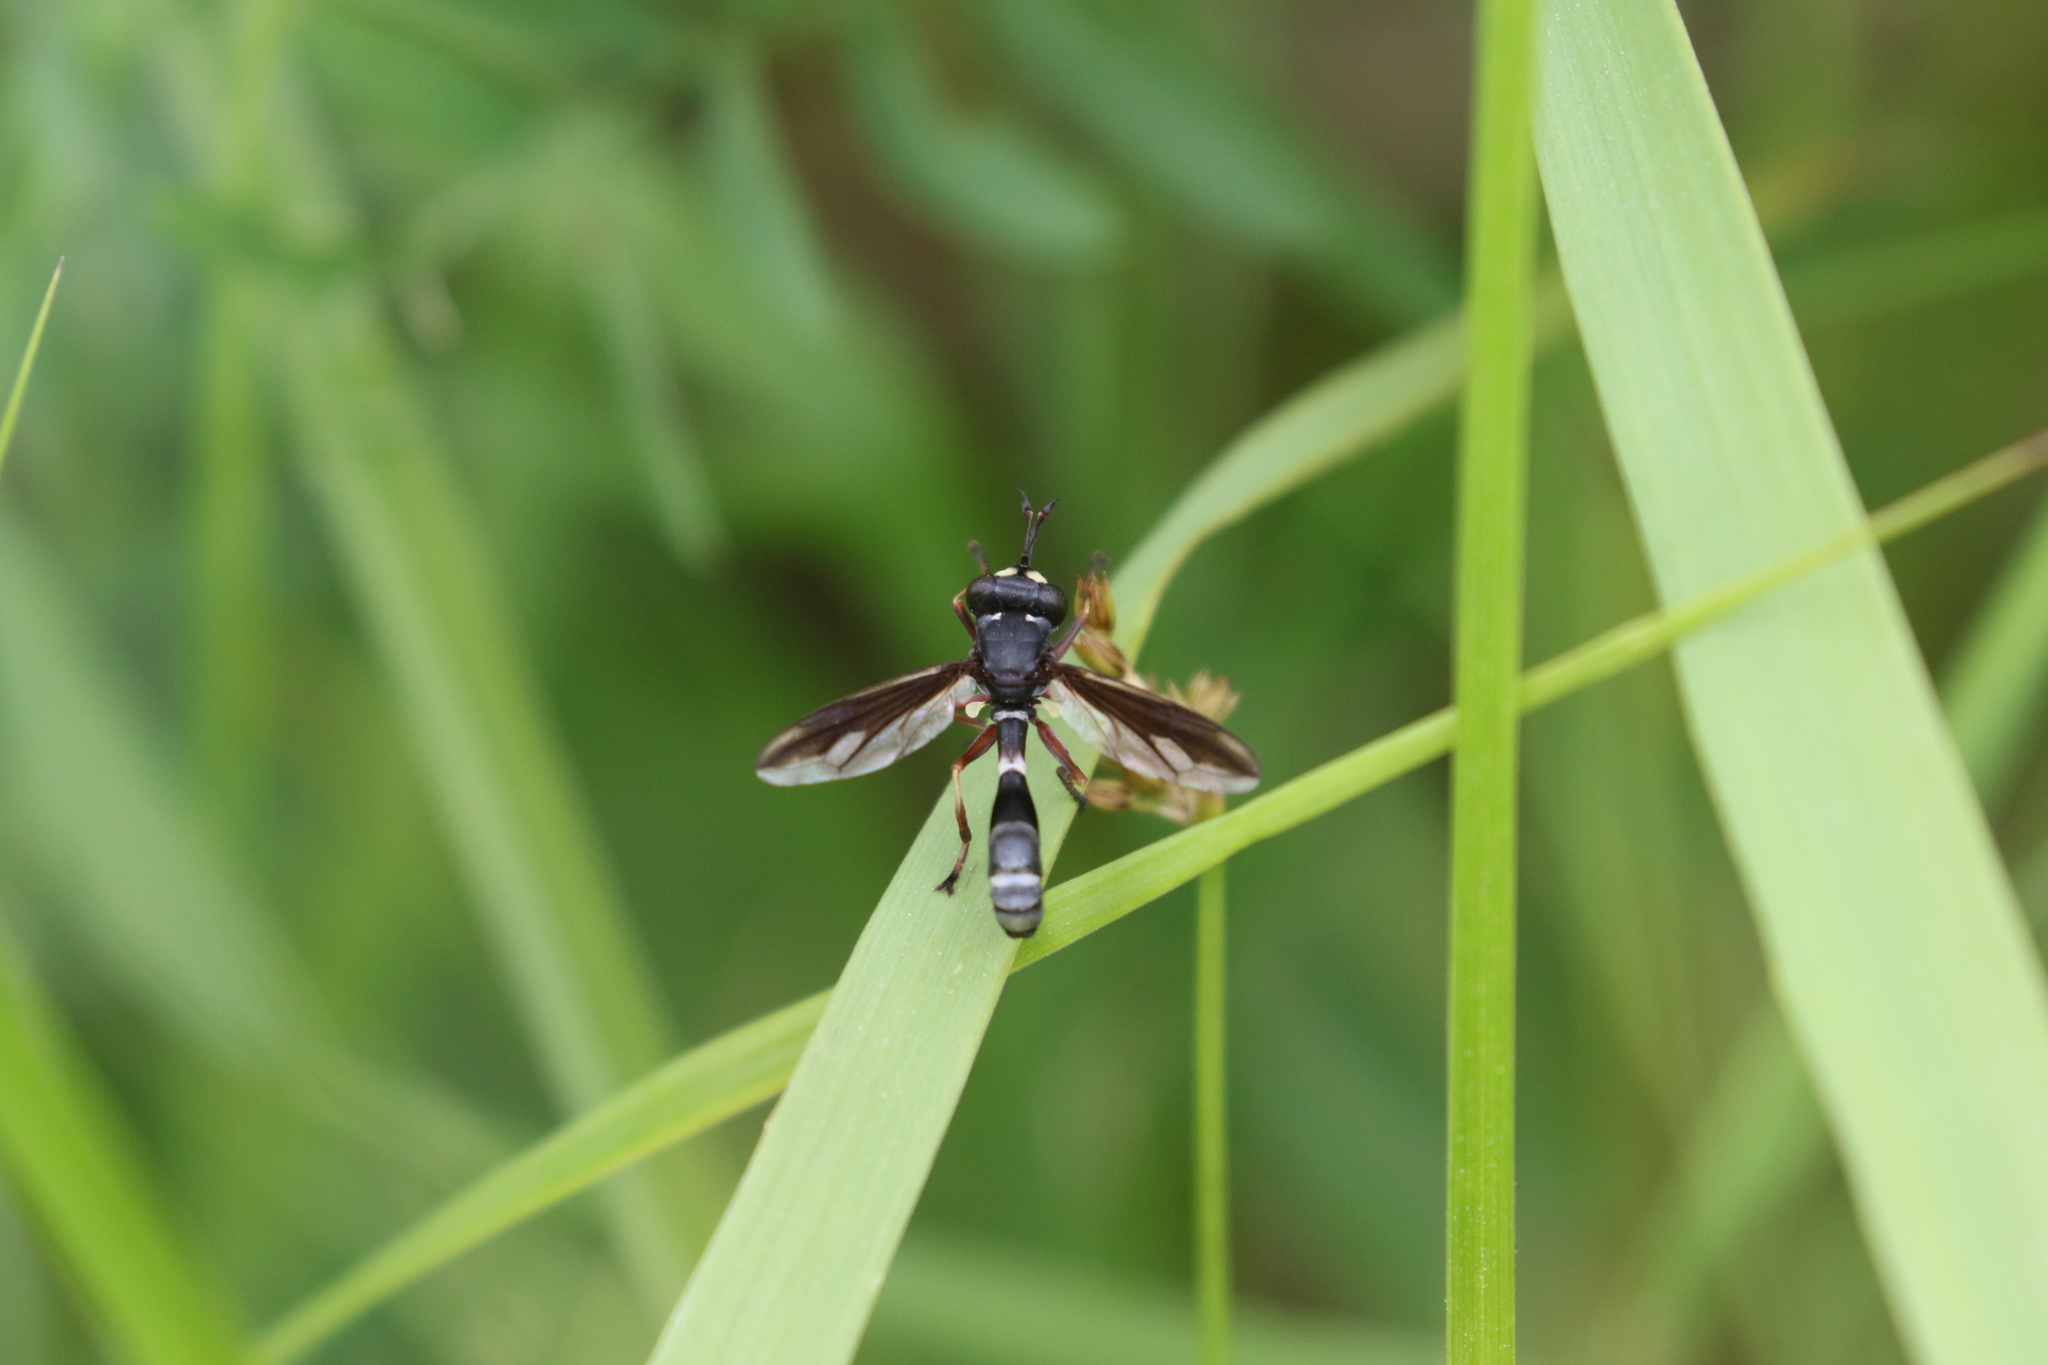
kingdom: Animalia
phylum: Arthropoda
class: Insecta
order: Diptera
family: Conopidae
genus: Physocephala
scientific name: Physocephala furcillata
